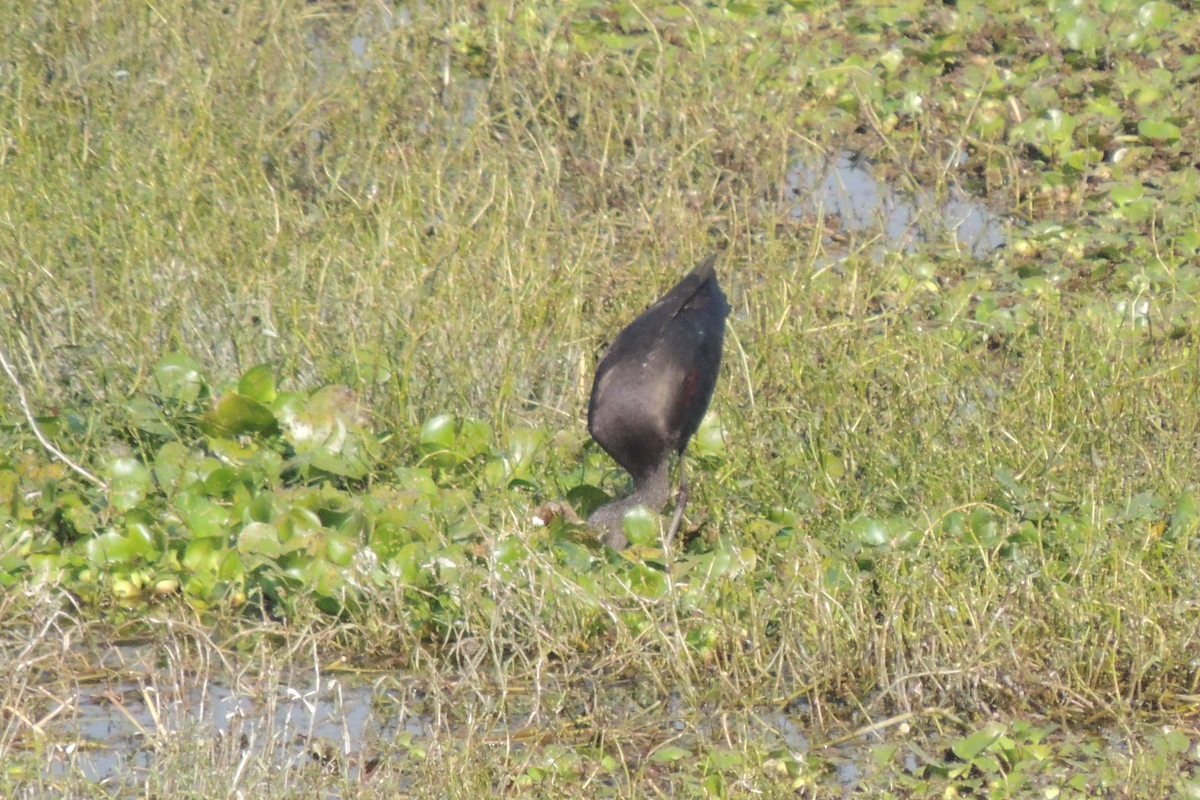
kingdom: Animalia
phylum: Chordata
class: Aves
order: Pelecaniformes
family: Threskiornithidae
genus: Plegadis
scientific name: Plegadis falcinellus
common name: Glossy ibis
